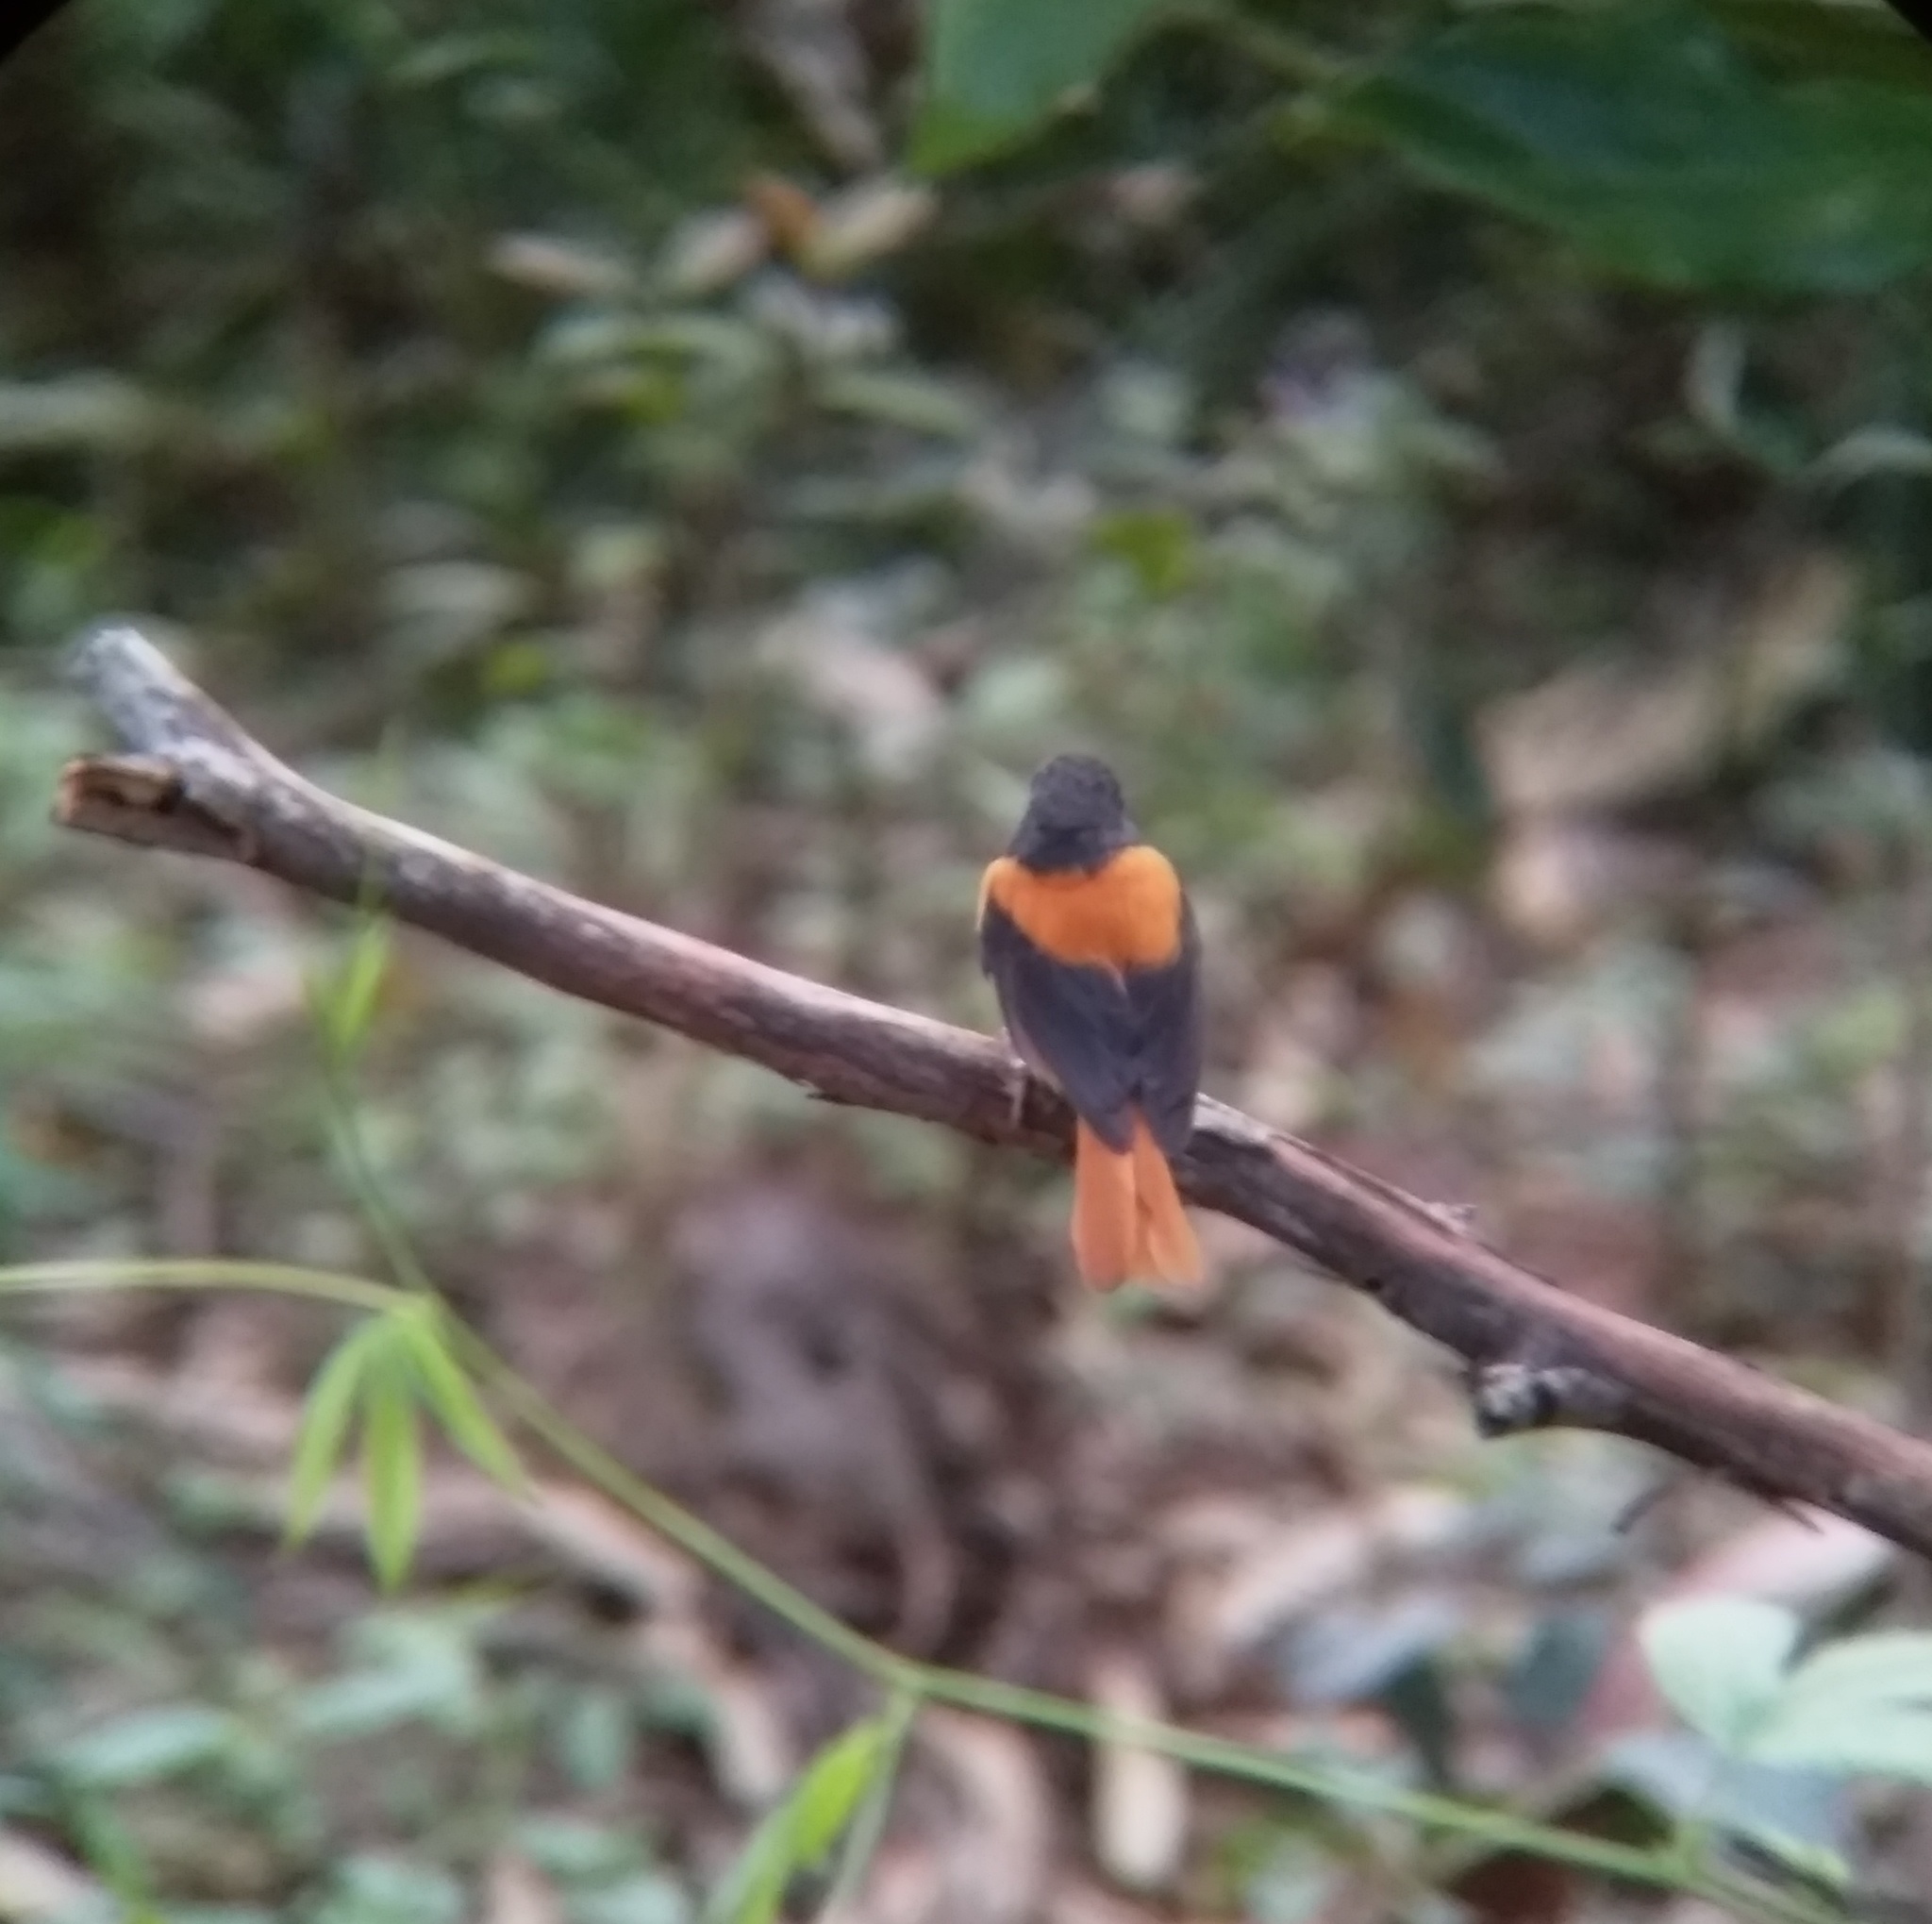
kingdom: Animalia
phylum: Chordata
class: Aves
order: Passeriformes
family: Muscicapidae
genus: Ficedula
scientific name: Ficedula nigrorufa
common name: Black-and-orange flycatcher
